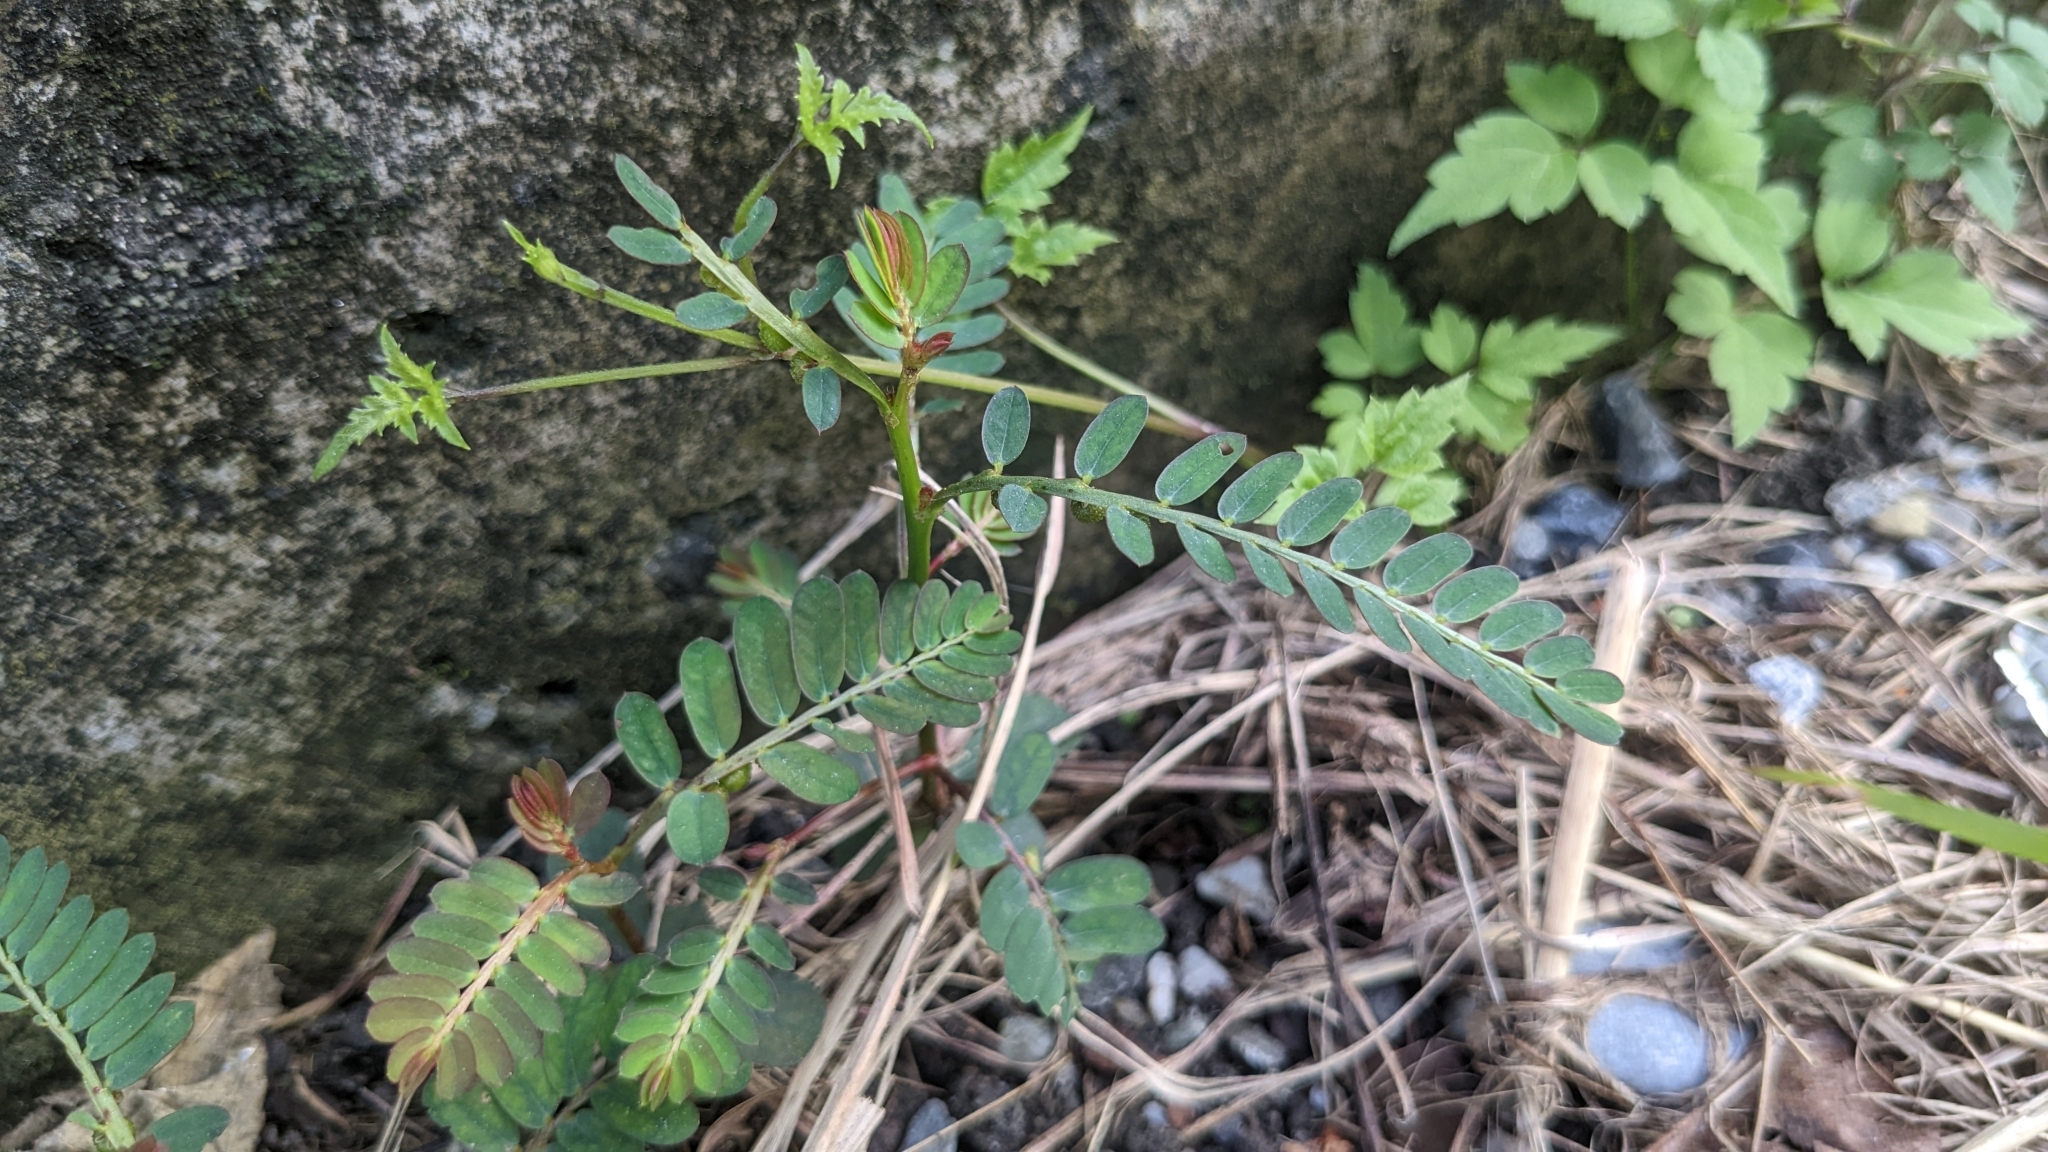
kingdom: Plantae
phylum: Tracheophyta
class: Magnoliopsida
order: Malpighiales
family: Phyllanthaceae
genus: Phyllanthus
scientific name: Phyllanthus urinaria
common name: Chamber bitter
